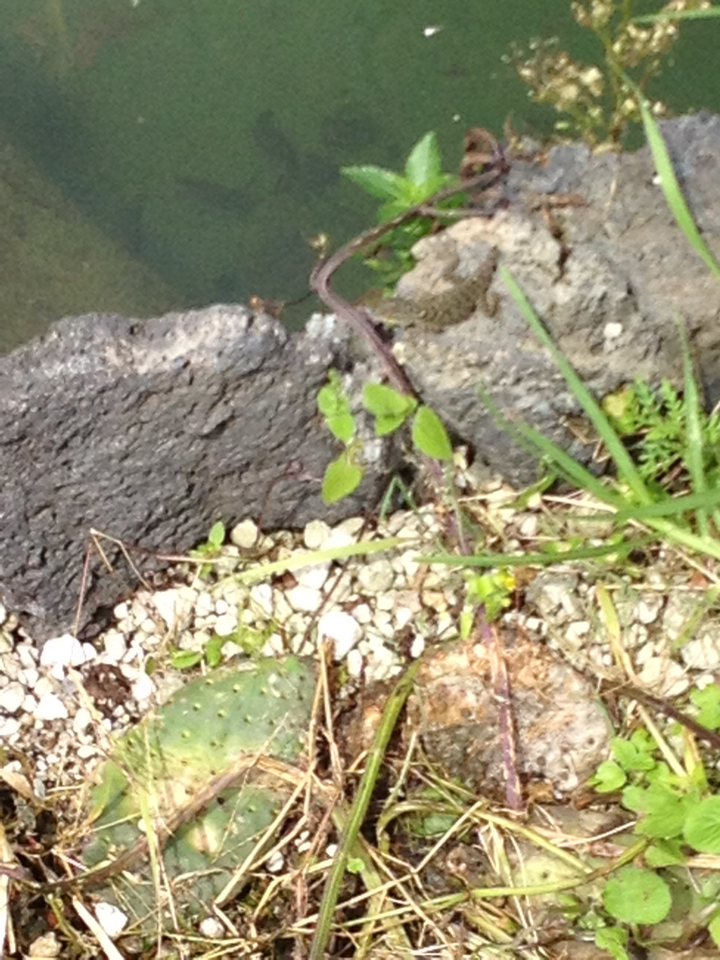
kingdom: Animalia
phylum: Chordata
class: Squamata
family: Phrynosomatidae
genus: Sceloporus
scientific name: Sceloporus torquatus
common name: Central plateau torquate lizard [melanogaster]
